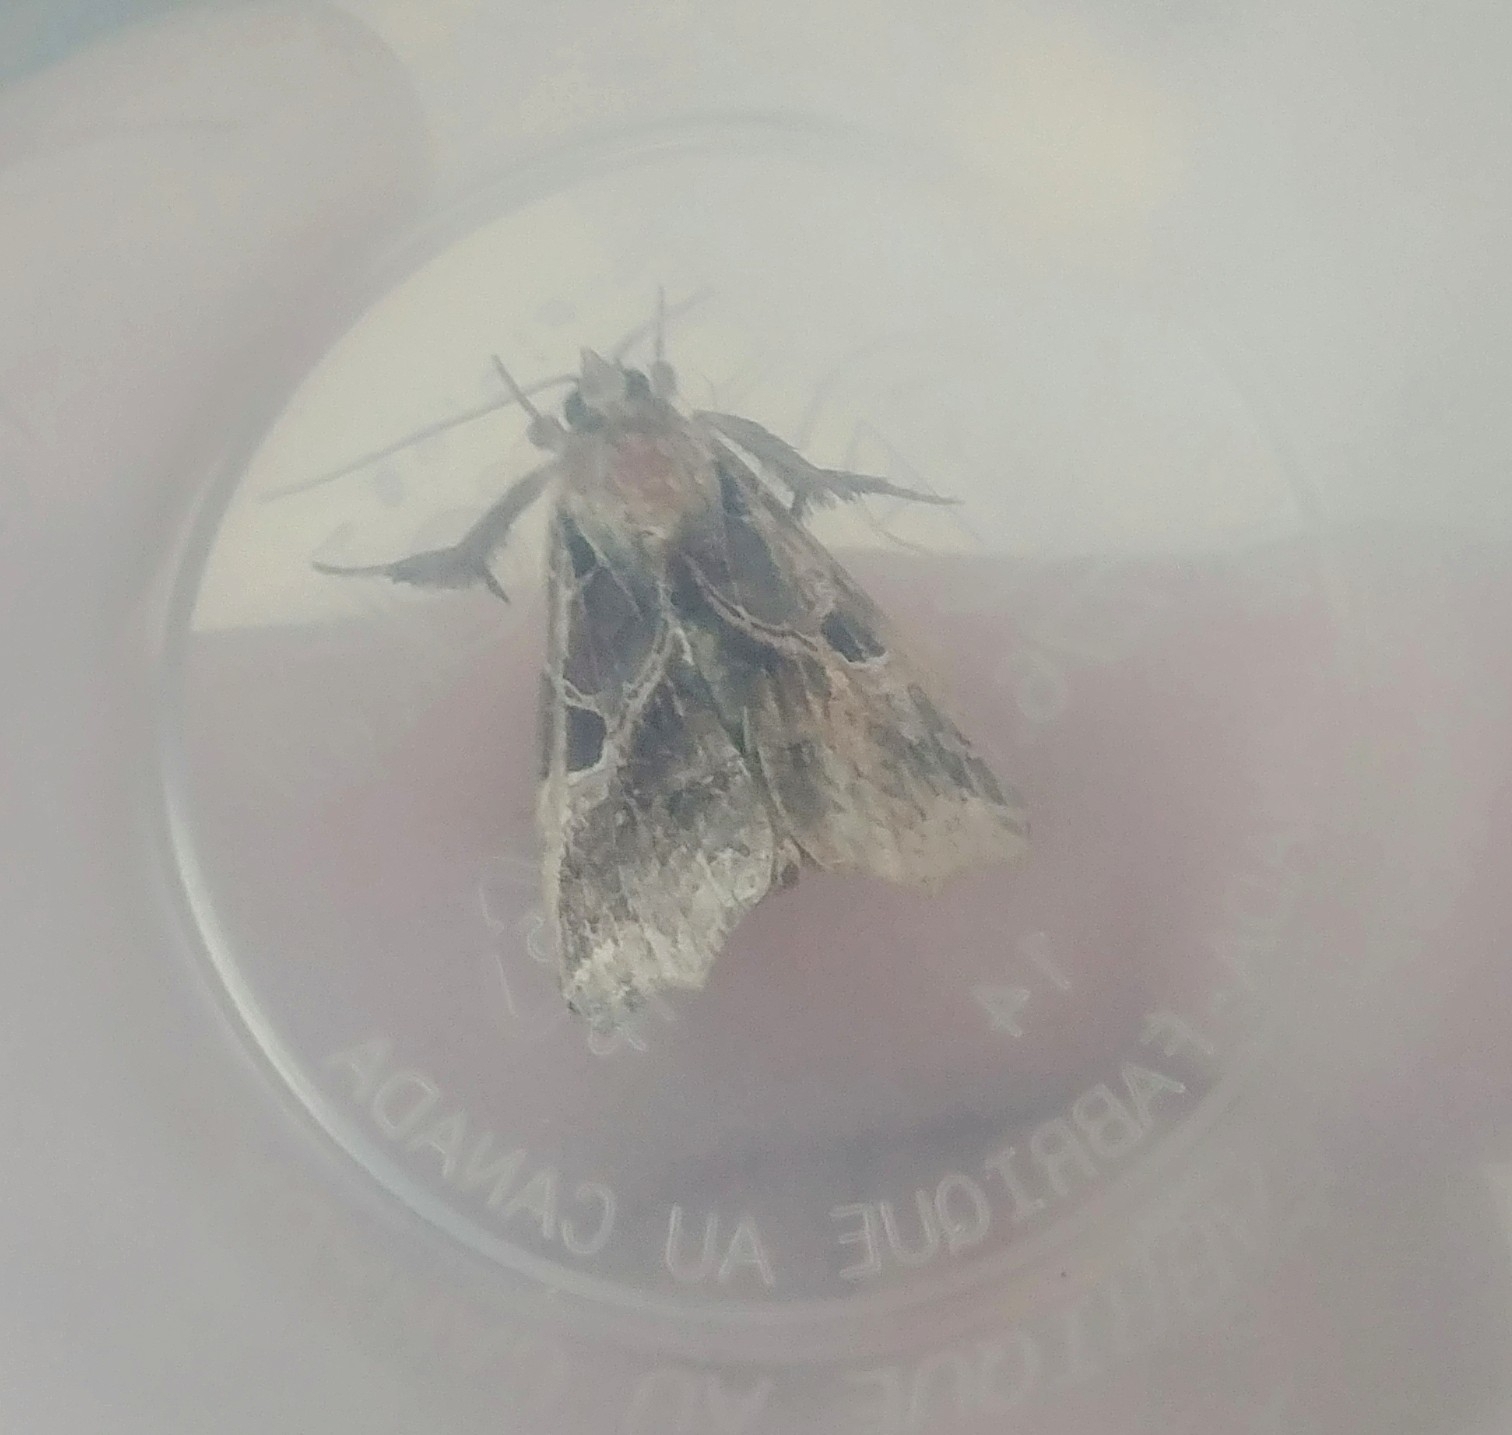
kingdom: Animalia
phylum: Arthropoda
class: Insecta
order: Lepidoptera
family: Noctuidae
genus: Callopistria
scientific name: Callopistria floridensis
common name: Florida fern moth
